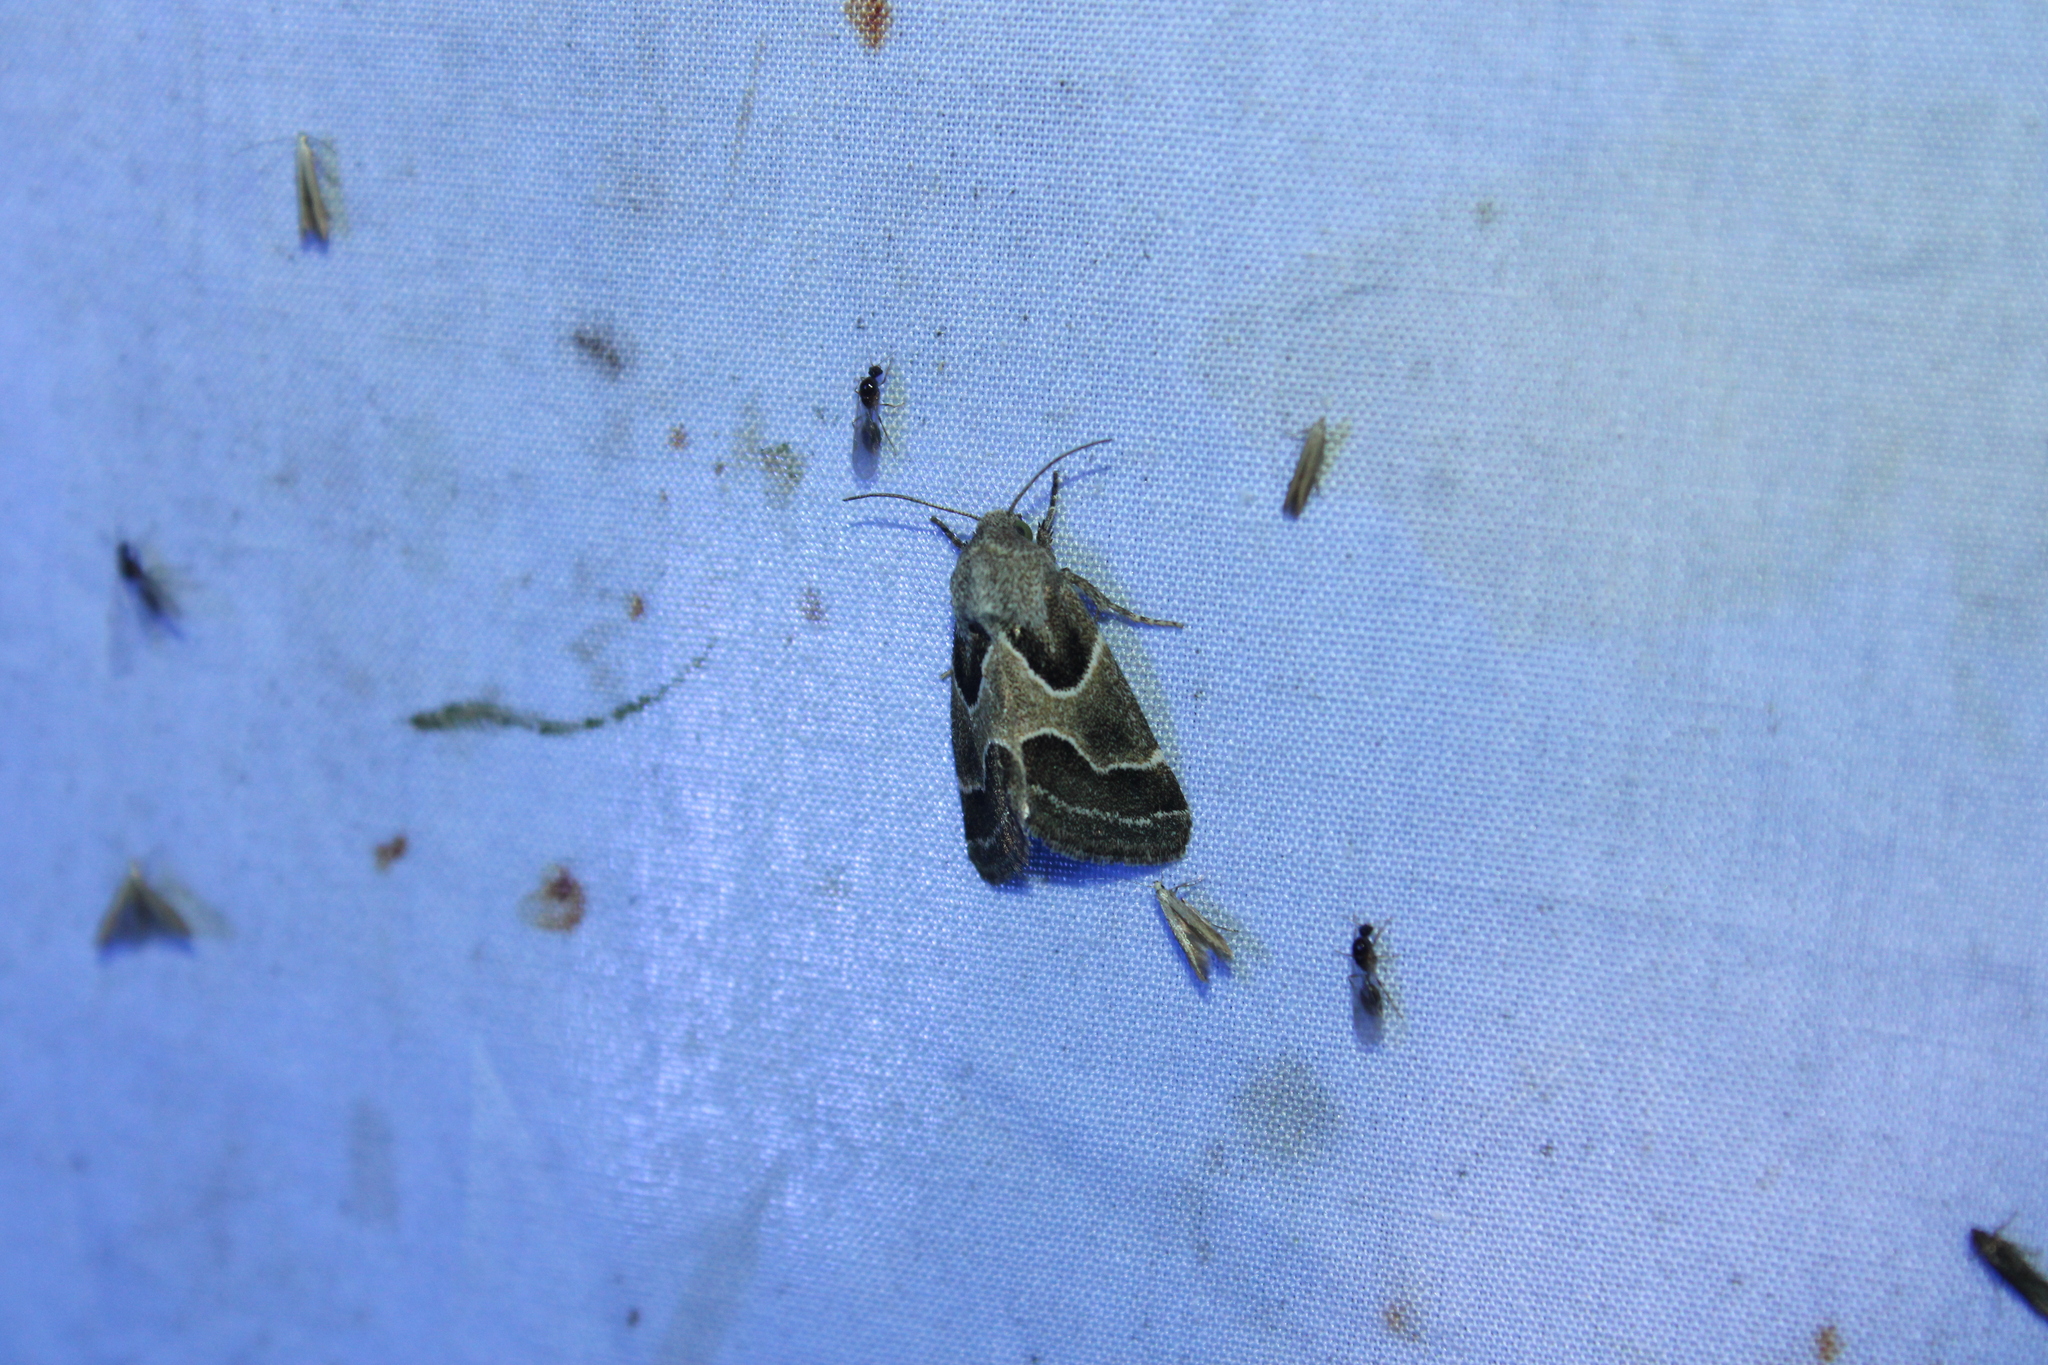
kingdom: Animalia
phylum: Arthropoda
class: Insecta
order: Lepidoptera
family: Noctuidae
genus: Schinia
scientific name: Schinia rivulosa
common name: Scarce meal-moth
